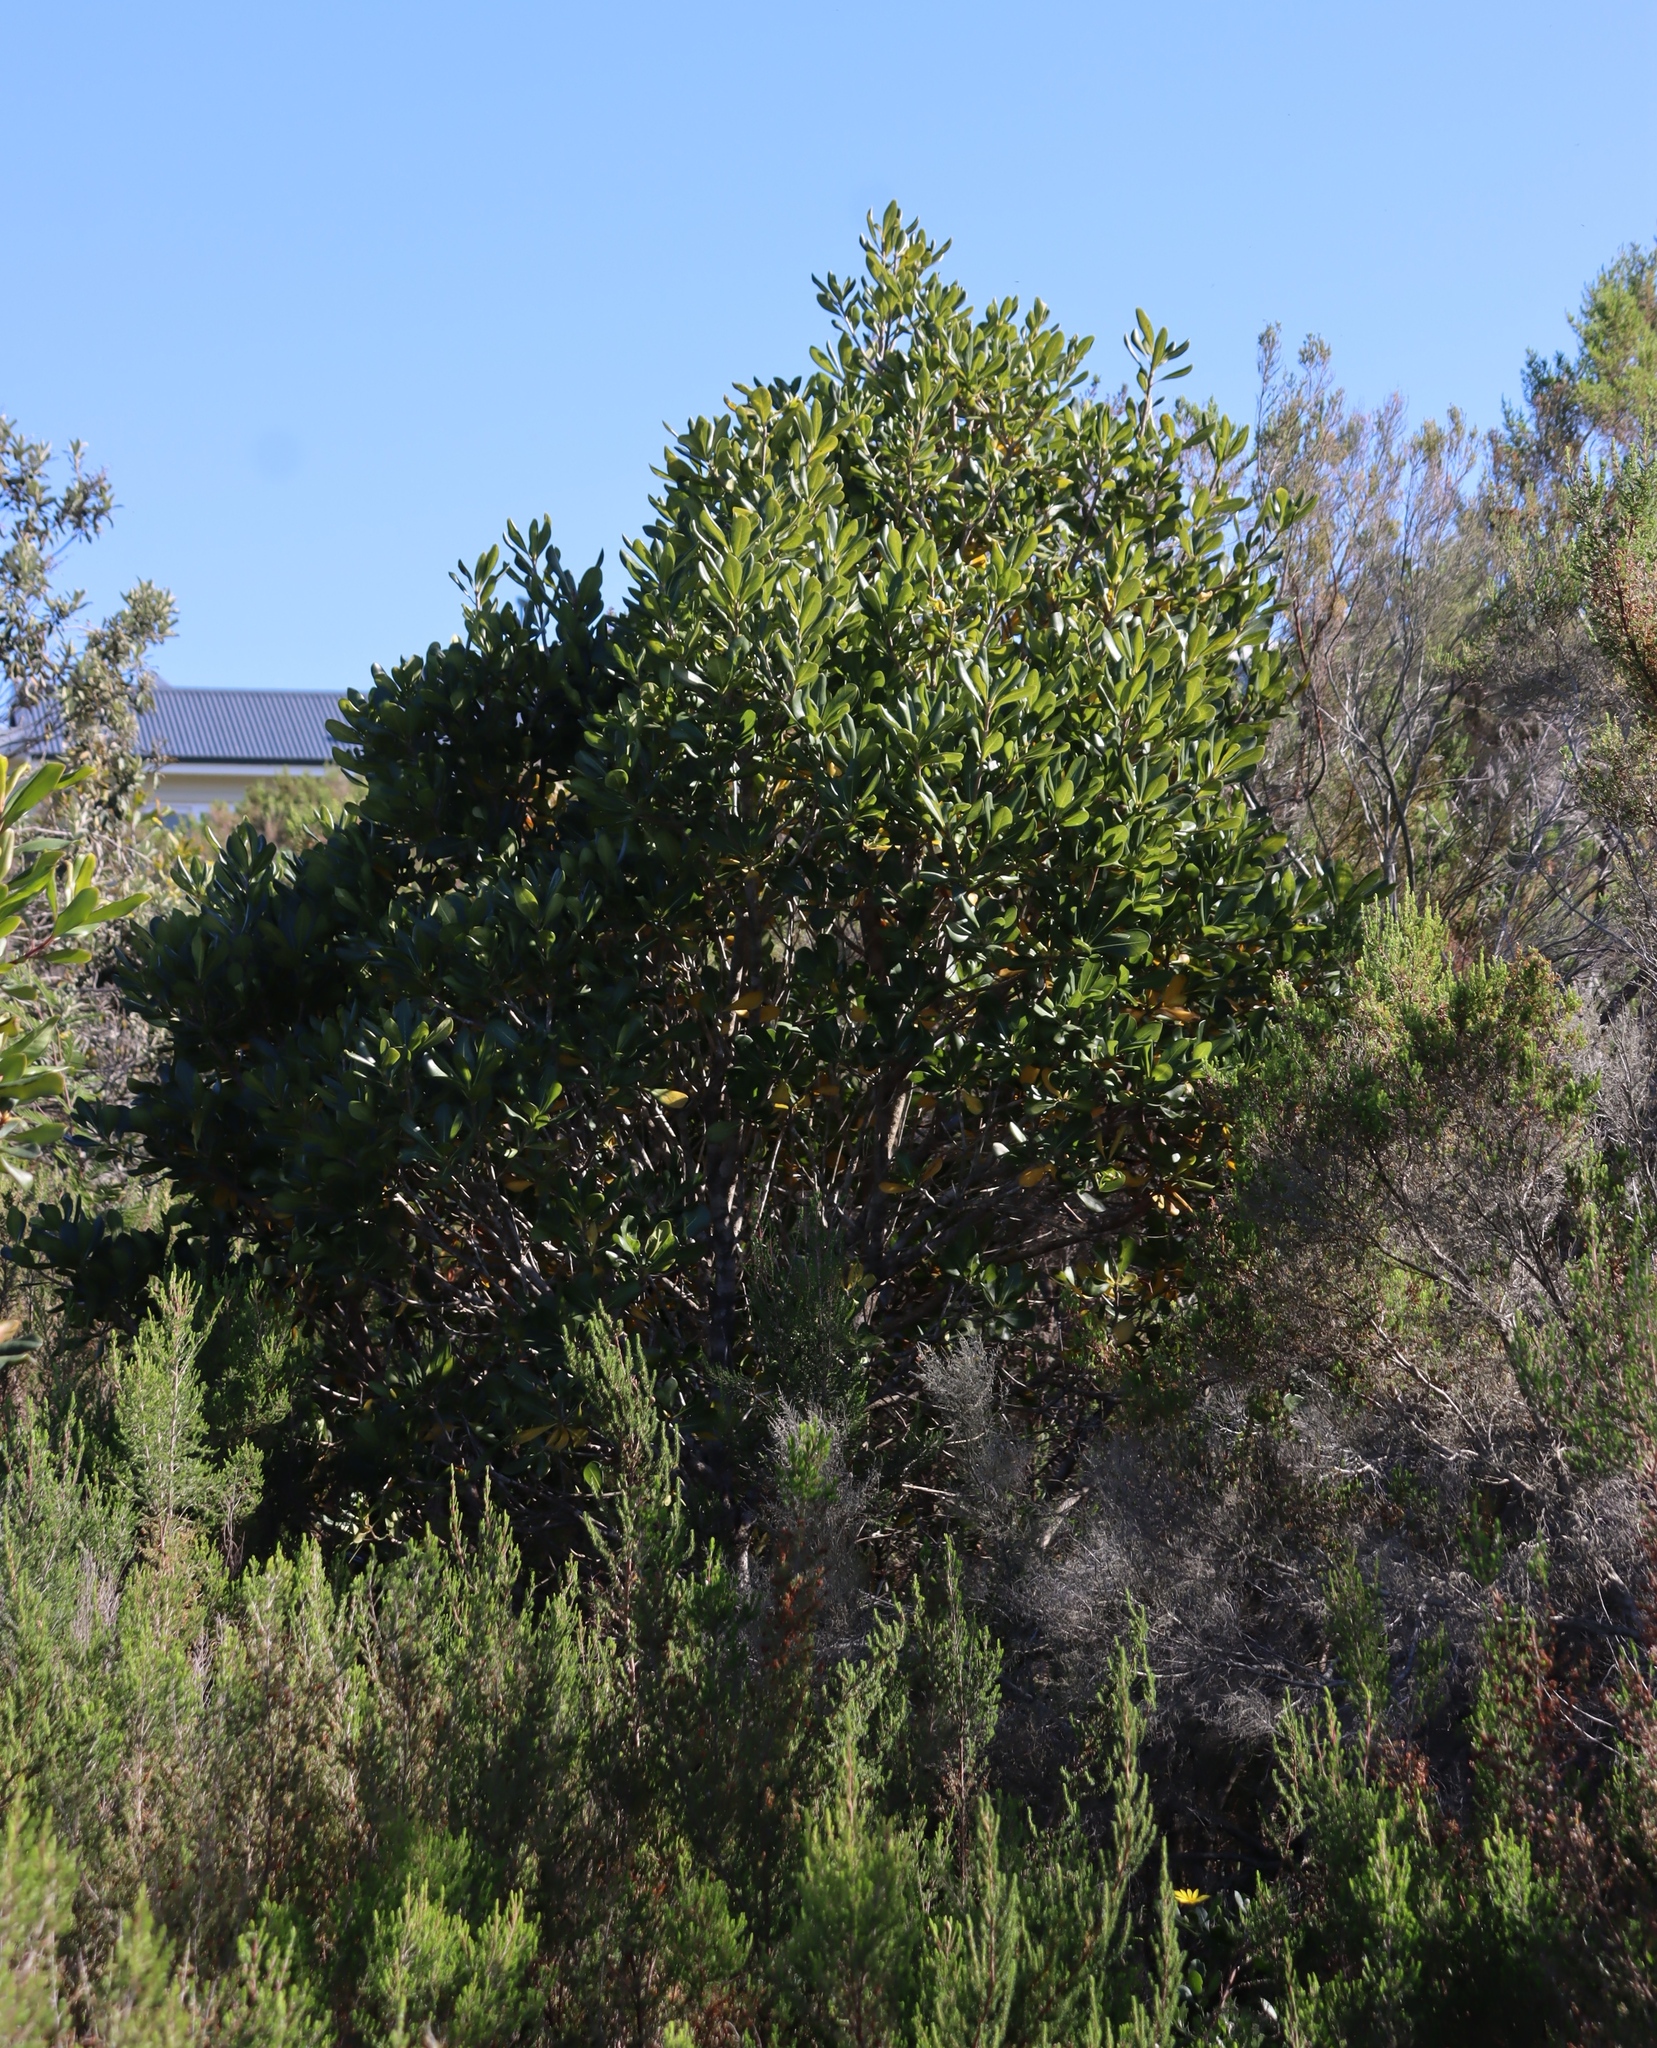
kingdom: Plantae
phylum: Tracheophyta
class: Magnoliopsida
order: Apiales
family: Pittosporaceae
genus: Pittosporum
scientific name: Pittosporum viridiflorum
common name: Cape cheesewood
